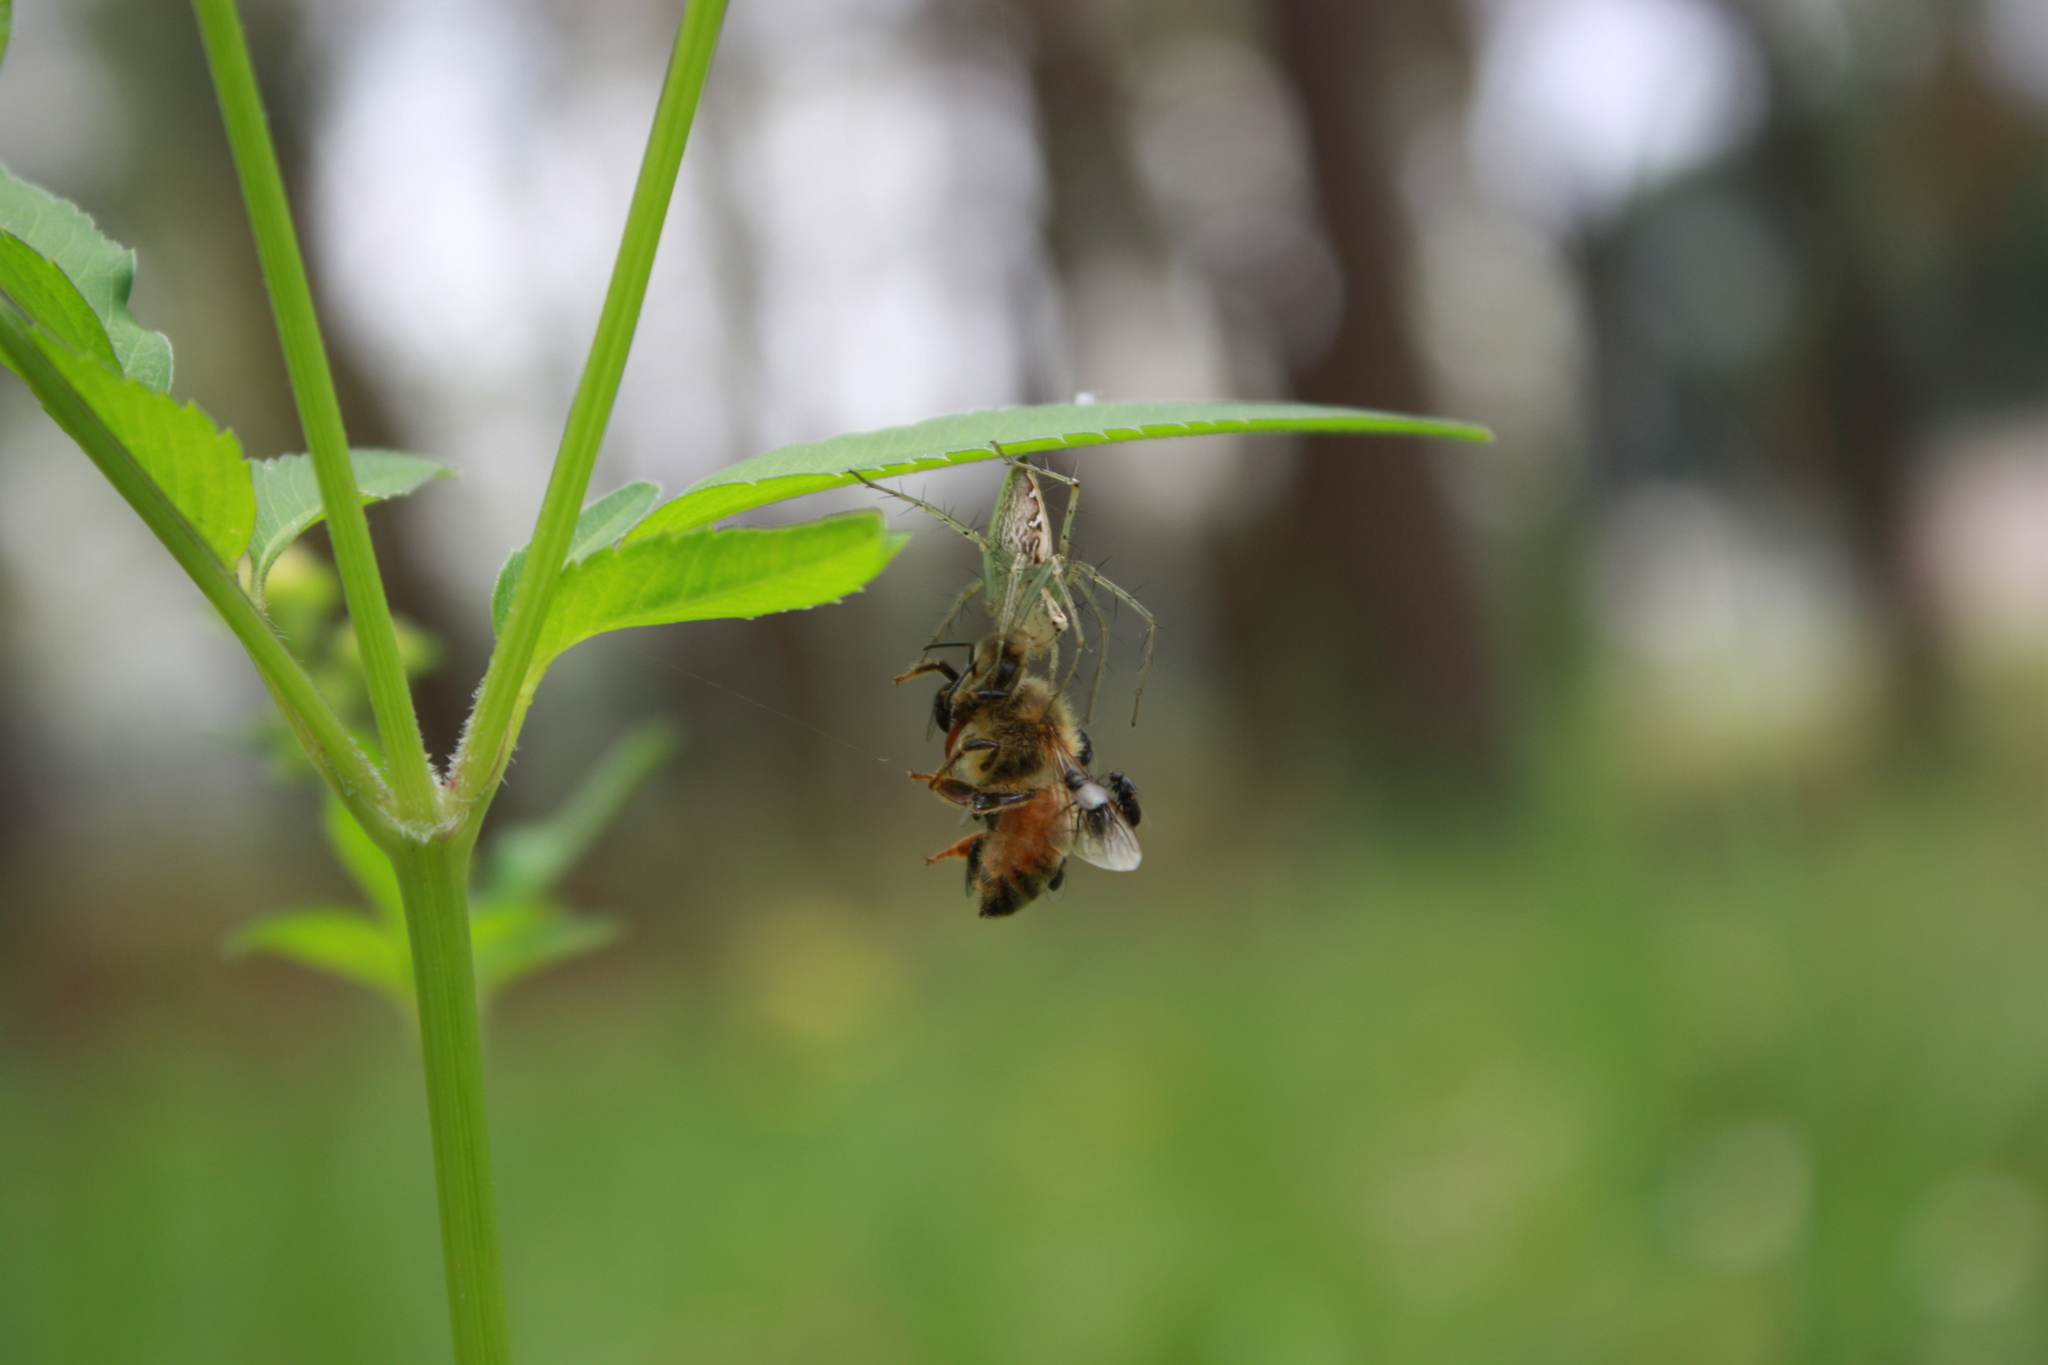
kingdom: Animalia
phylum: Arthropoda
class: Insecta
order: Hymenoptera
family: Apidae
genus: Apis
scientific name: Apis mellifera
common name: Honey bee
